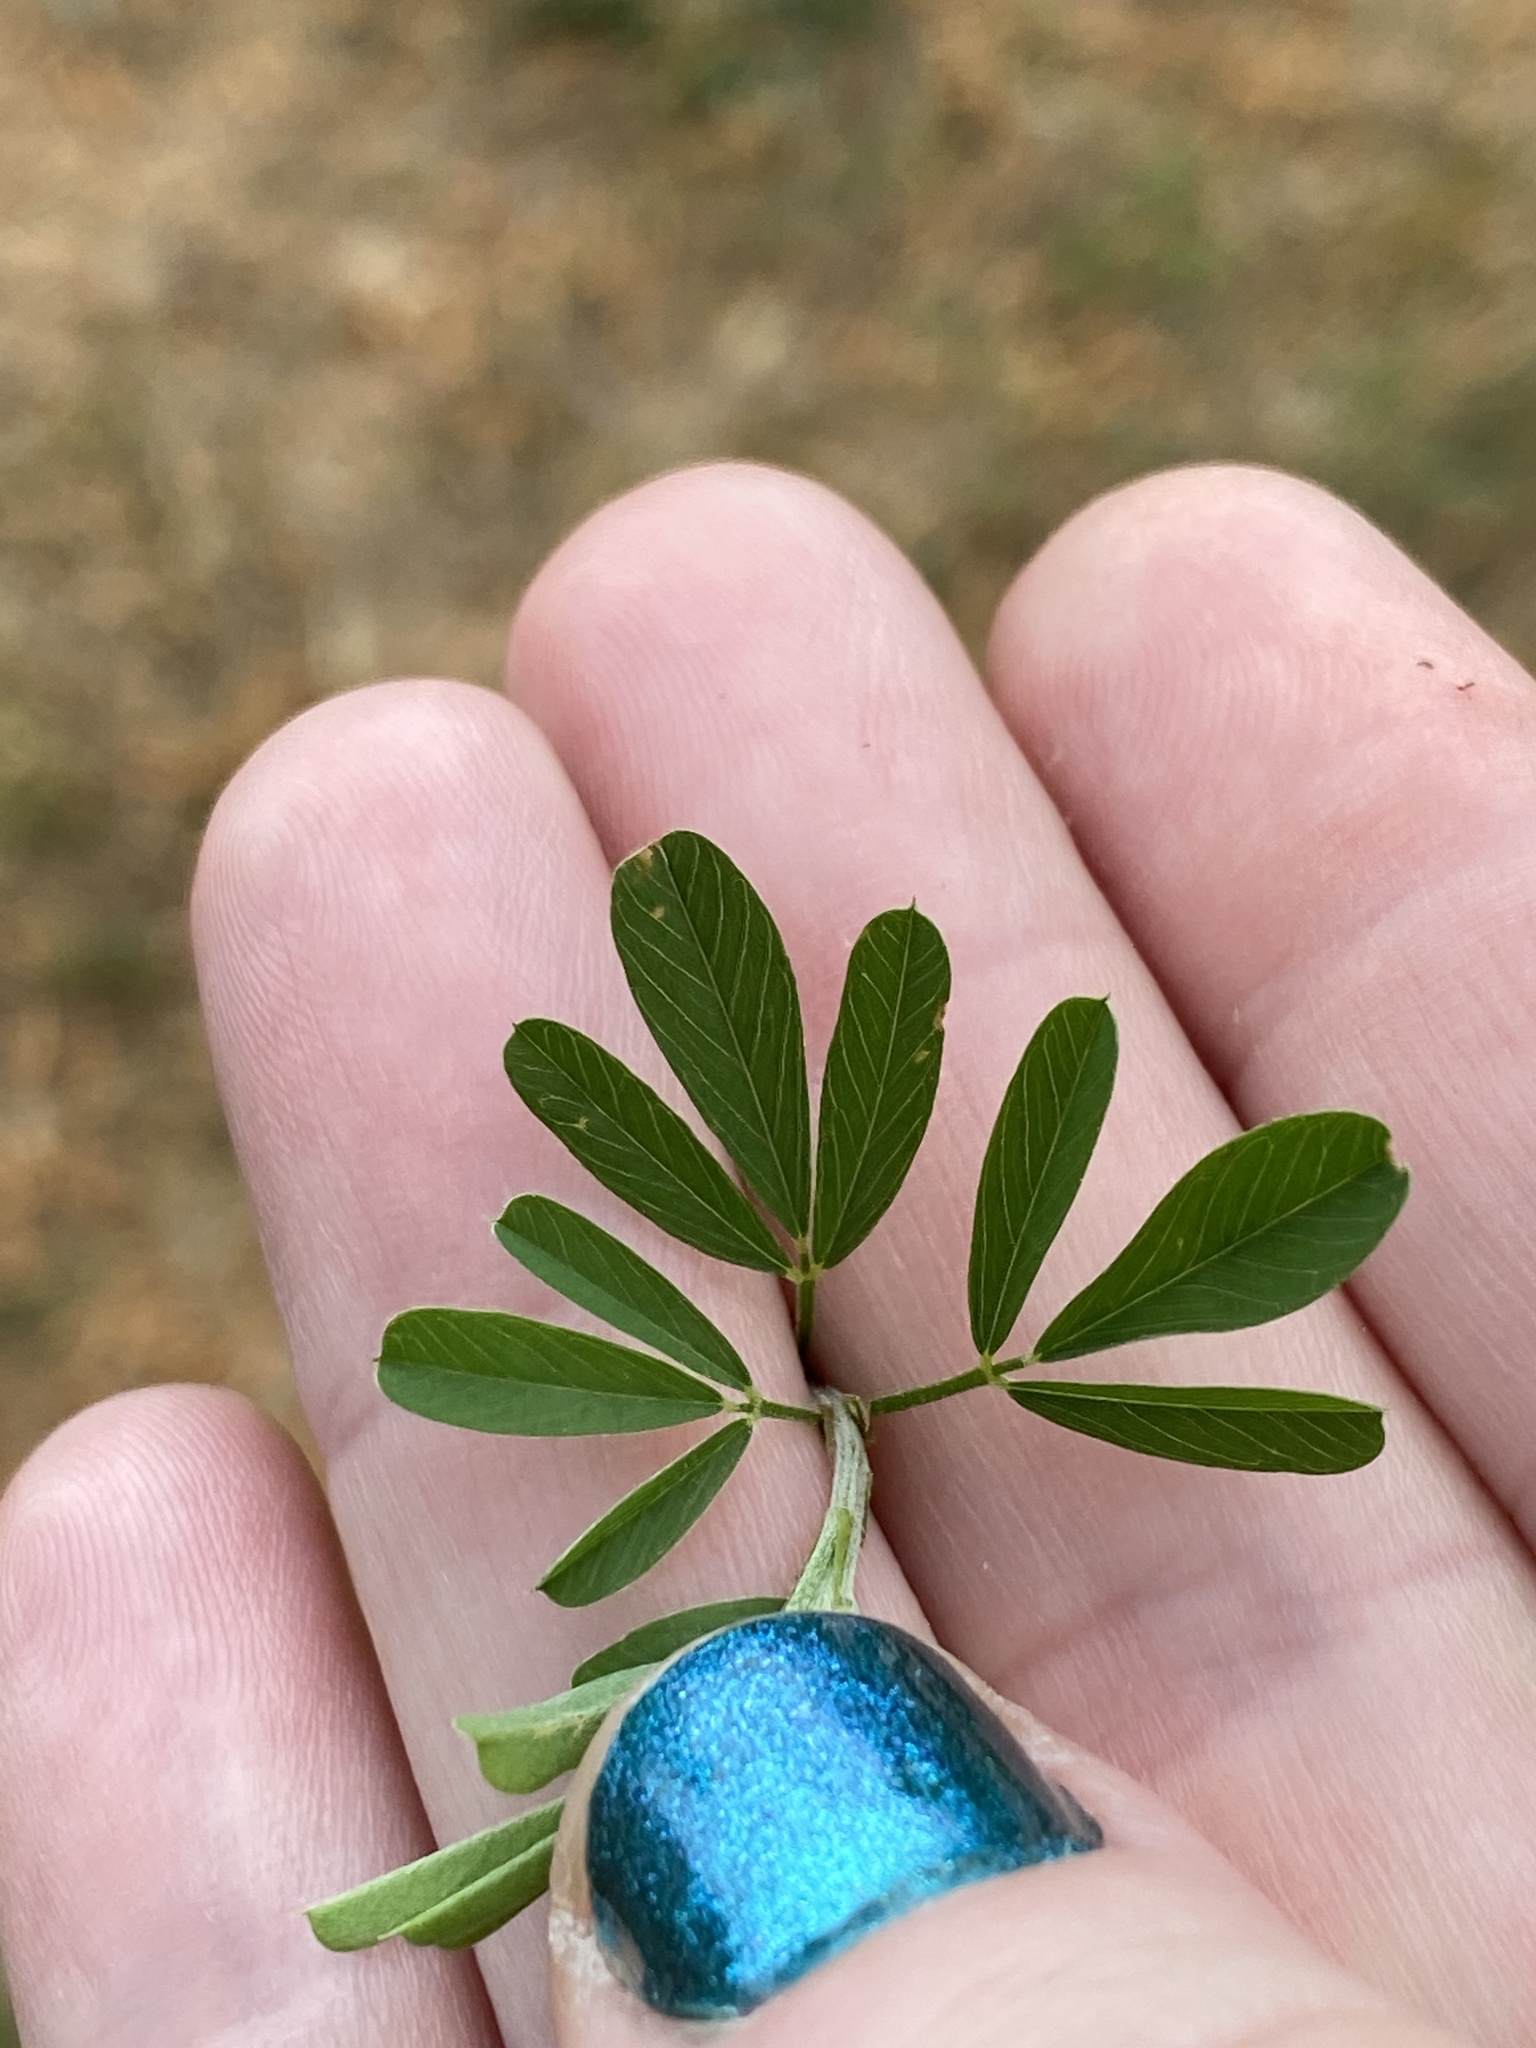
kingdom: Plantae
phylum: Tracheophyta
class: Magnoliopsida
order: Fabales
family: Fabaceae
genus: Lespedeza
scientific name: Lespedeza cuneata
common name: Chinese bush-clover
